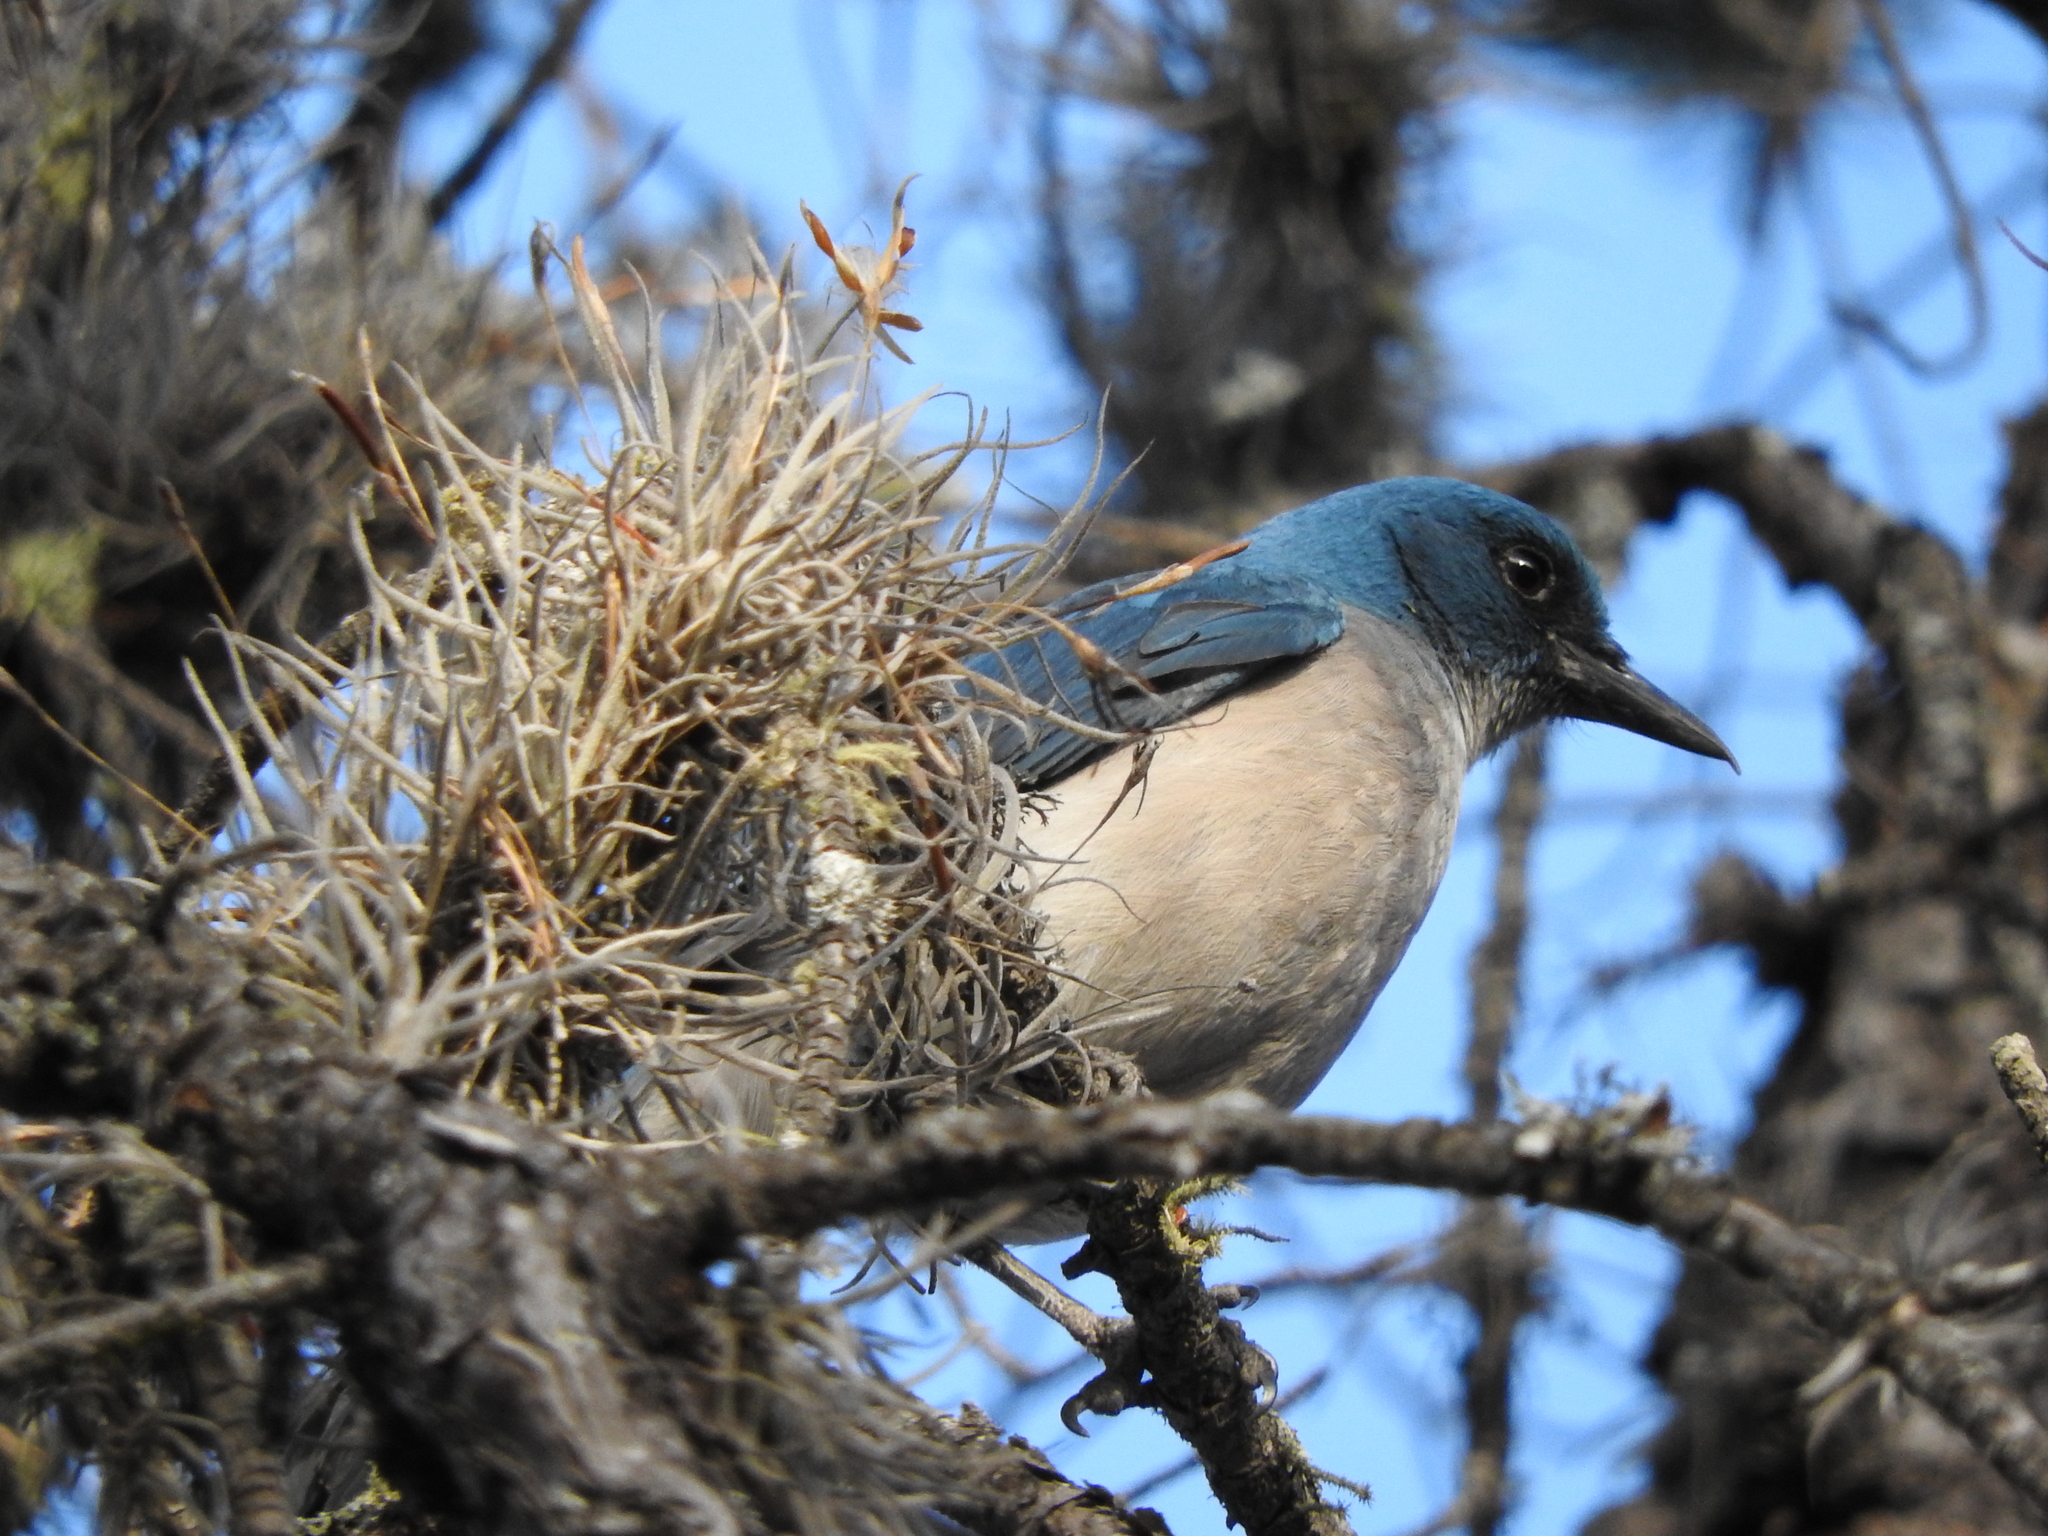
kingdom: Animalia
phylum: Chordata
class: Aves
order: Passeriformes
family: Corvidae
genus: Aphelocoma
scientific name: Aphelocoma wollweberi
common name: Mexican jay
